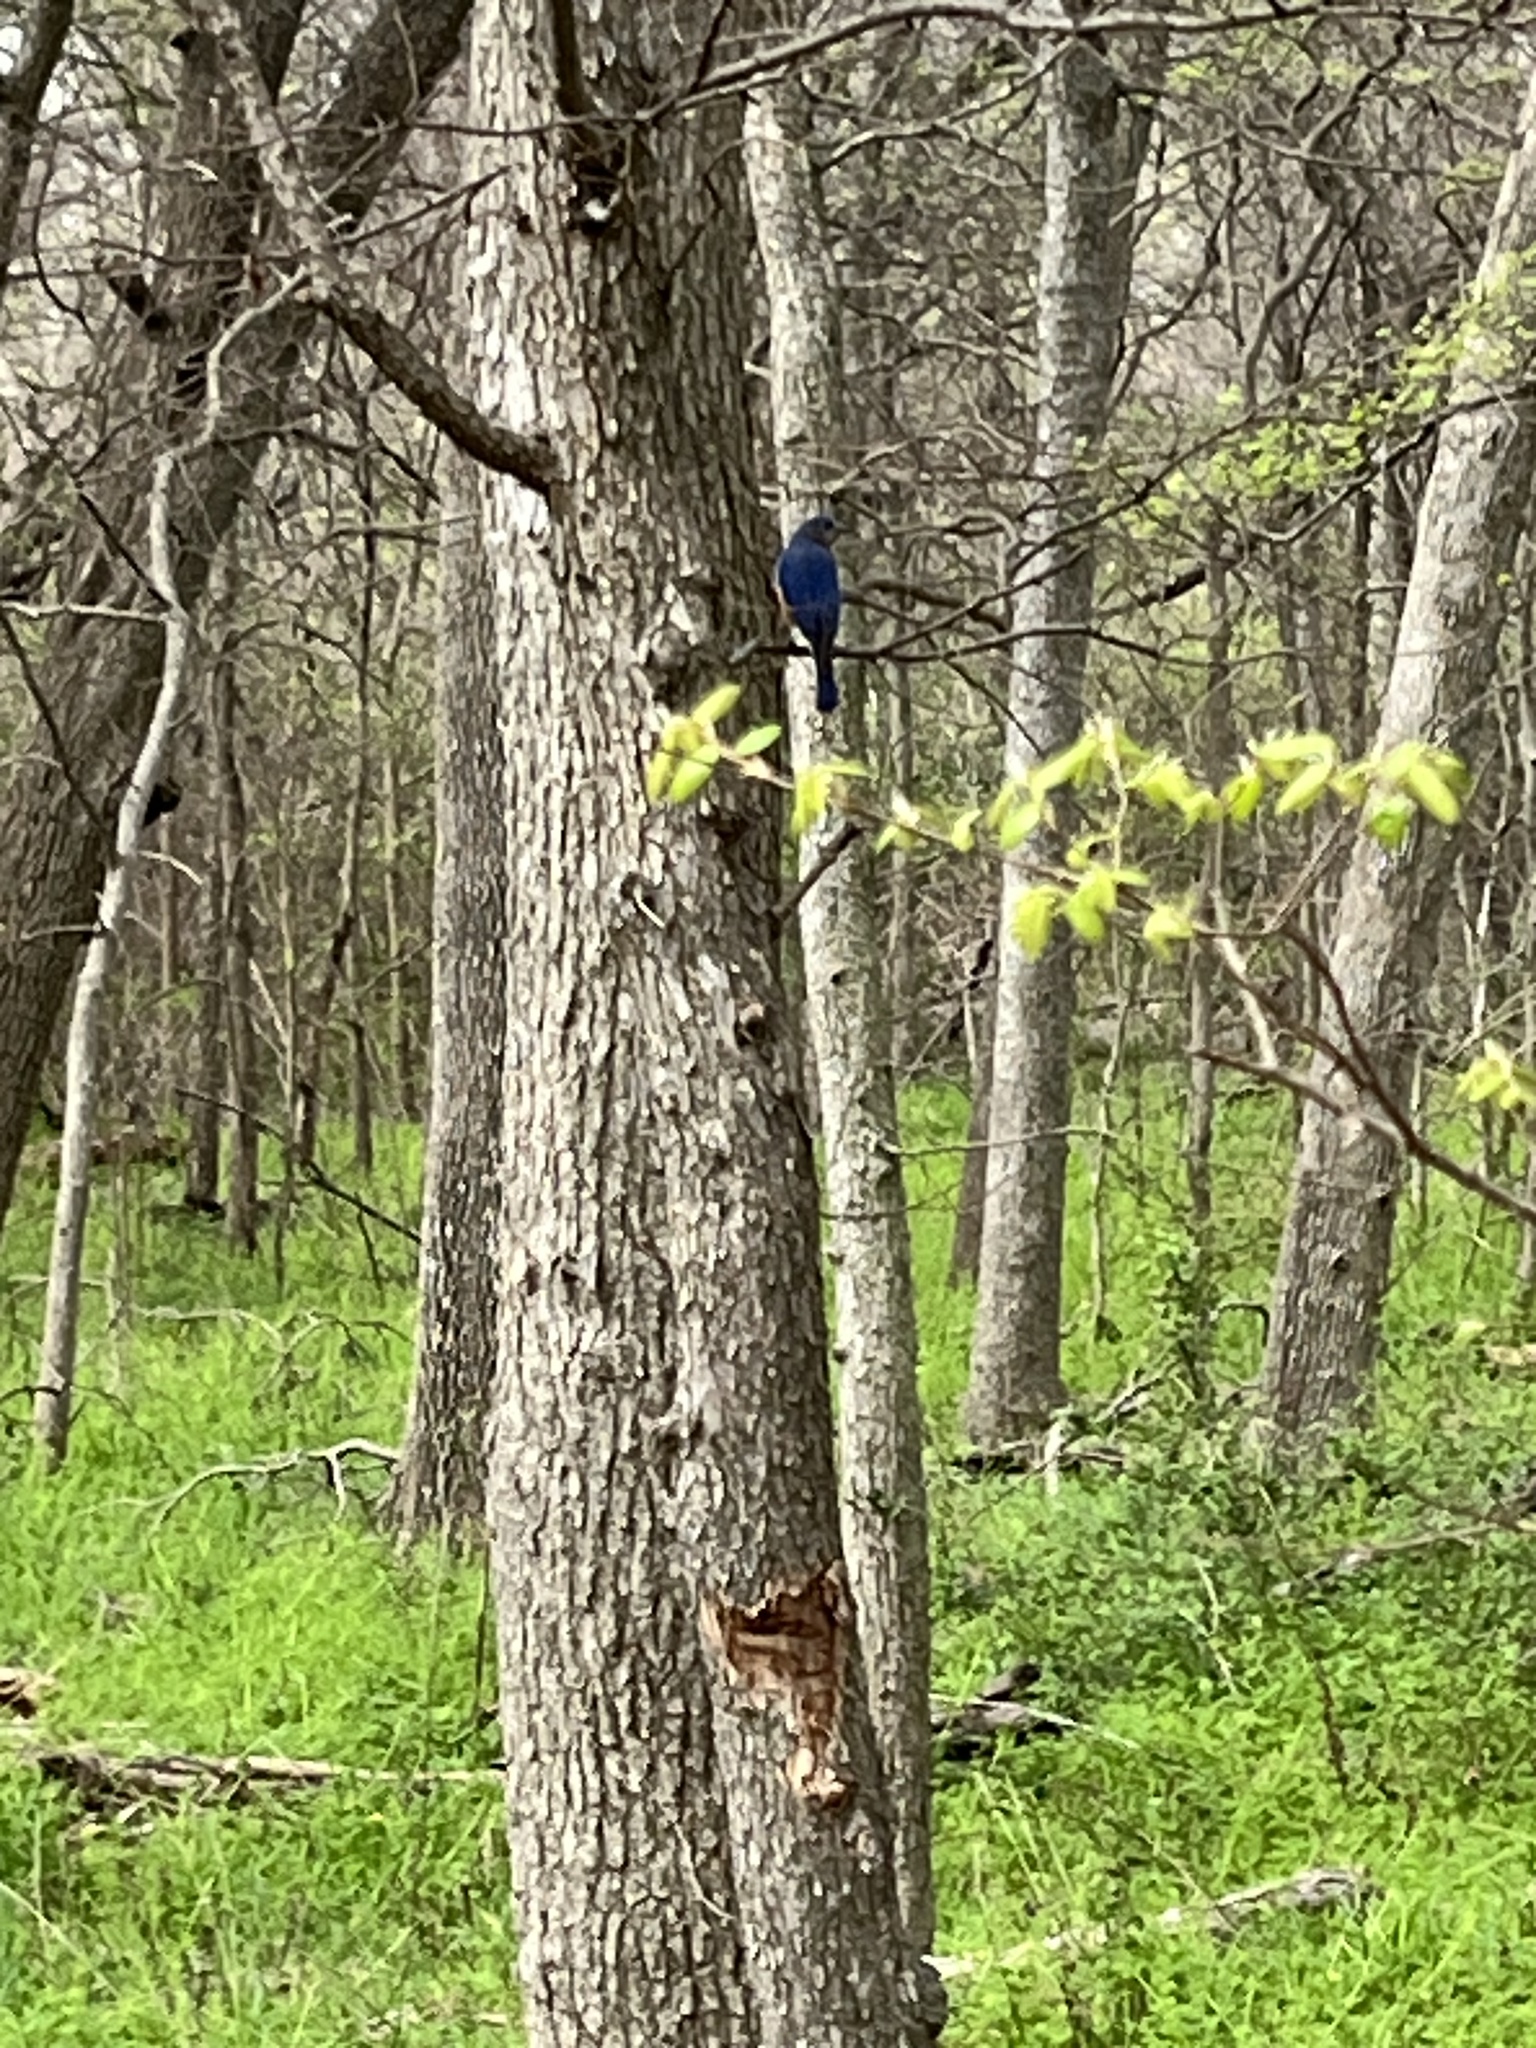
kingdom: Animalia
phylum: Chordata
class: Aves
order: Passeriformes
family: Turdidae
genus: Sialia
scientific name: Sialia sialis
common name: Eastern bluebird
